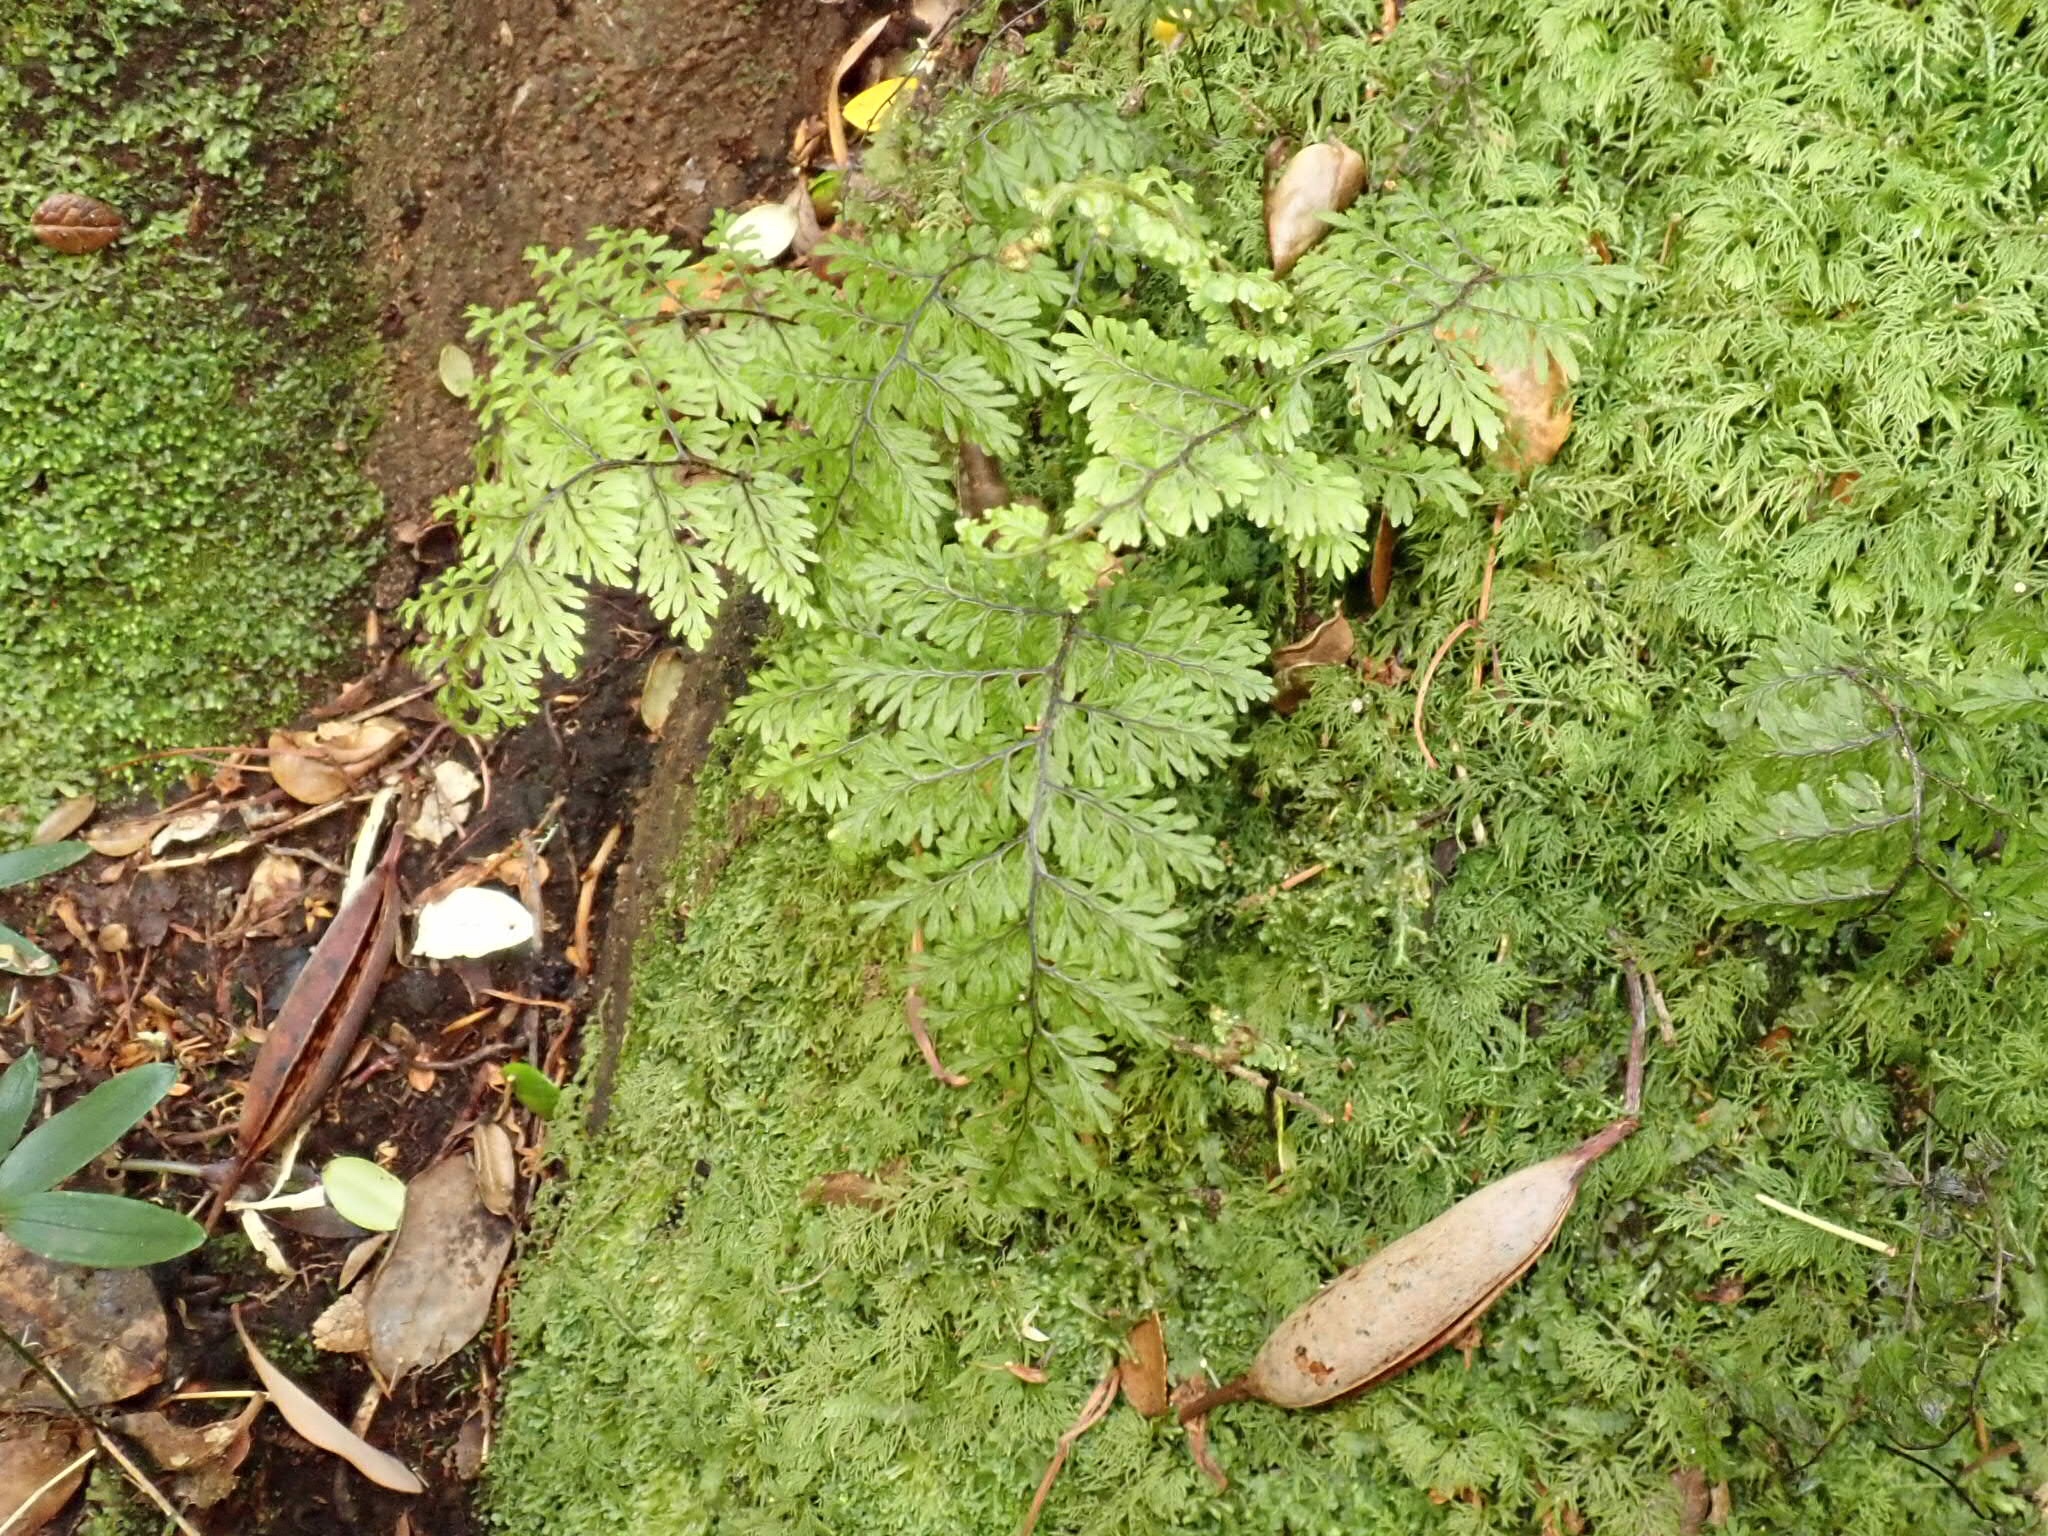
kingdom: Plantae
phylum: Tracheophyta
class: Polypodiopsida
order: Hymenophyllales
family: Hymenophyllaceae
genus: Hymenophyllum
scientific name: Hymenophyllum dentatum
